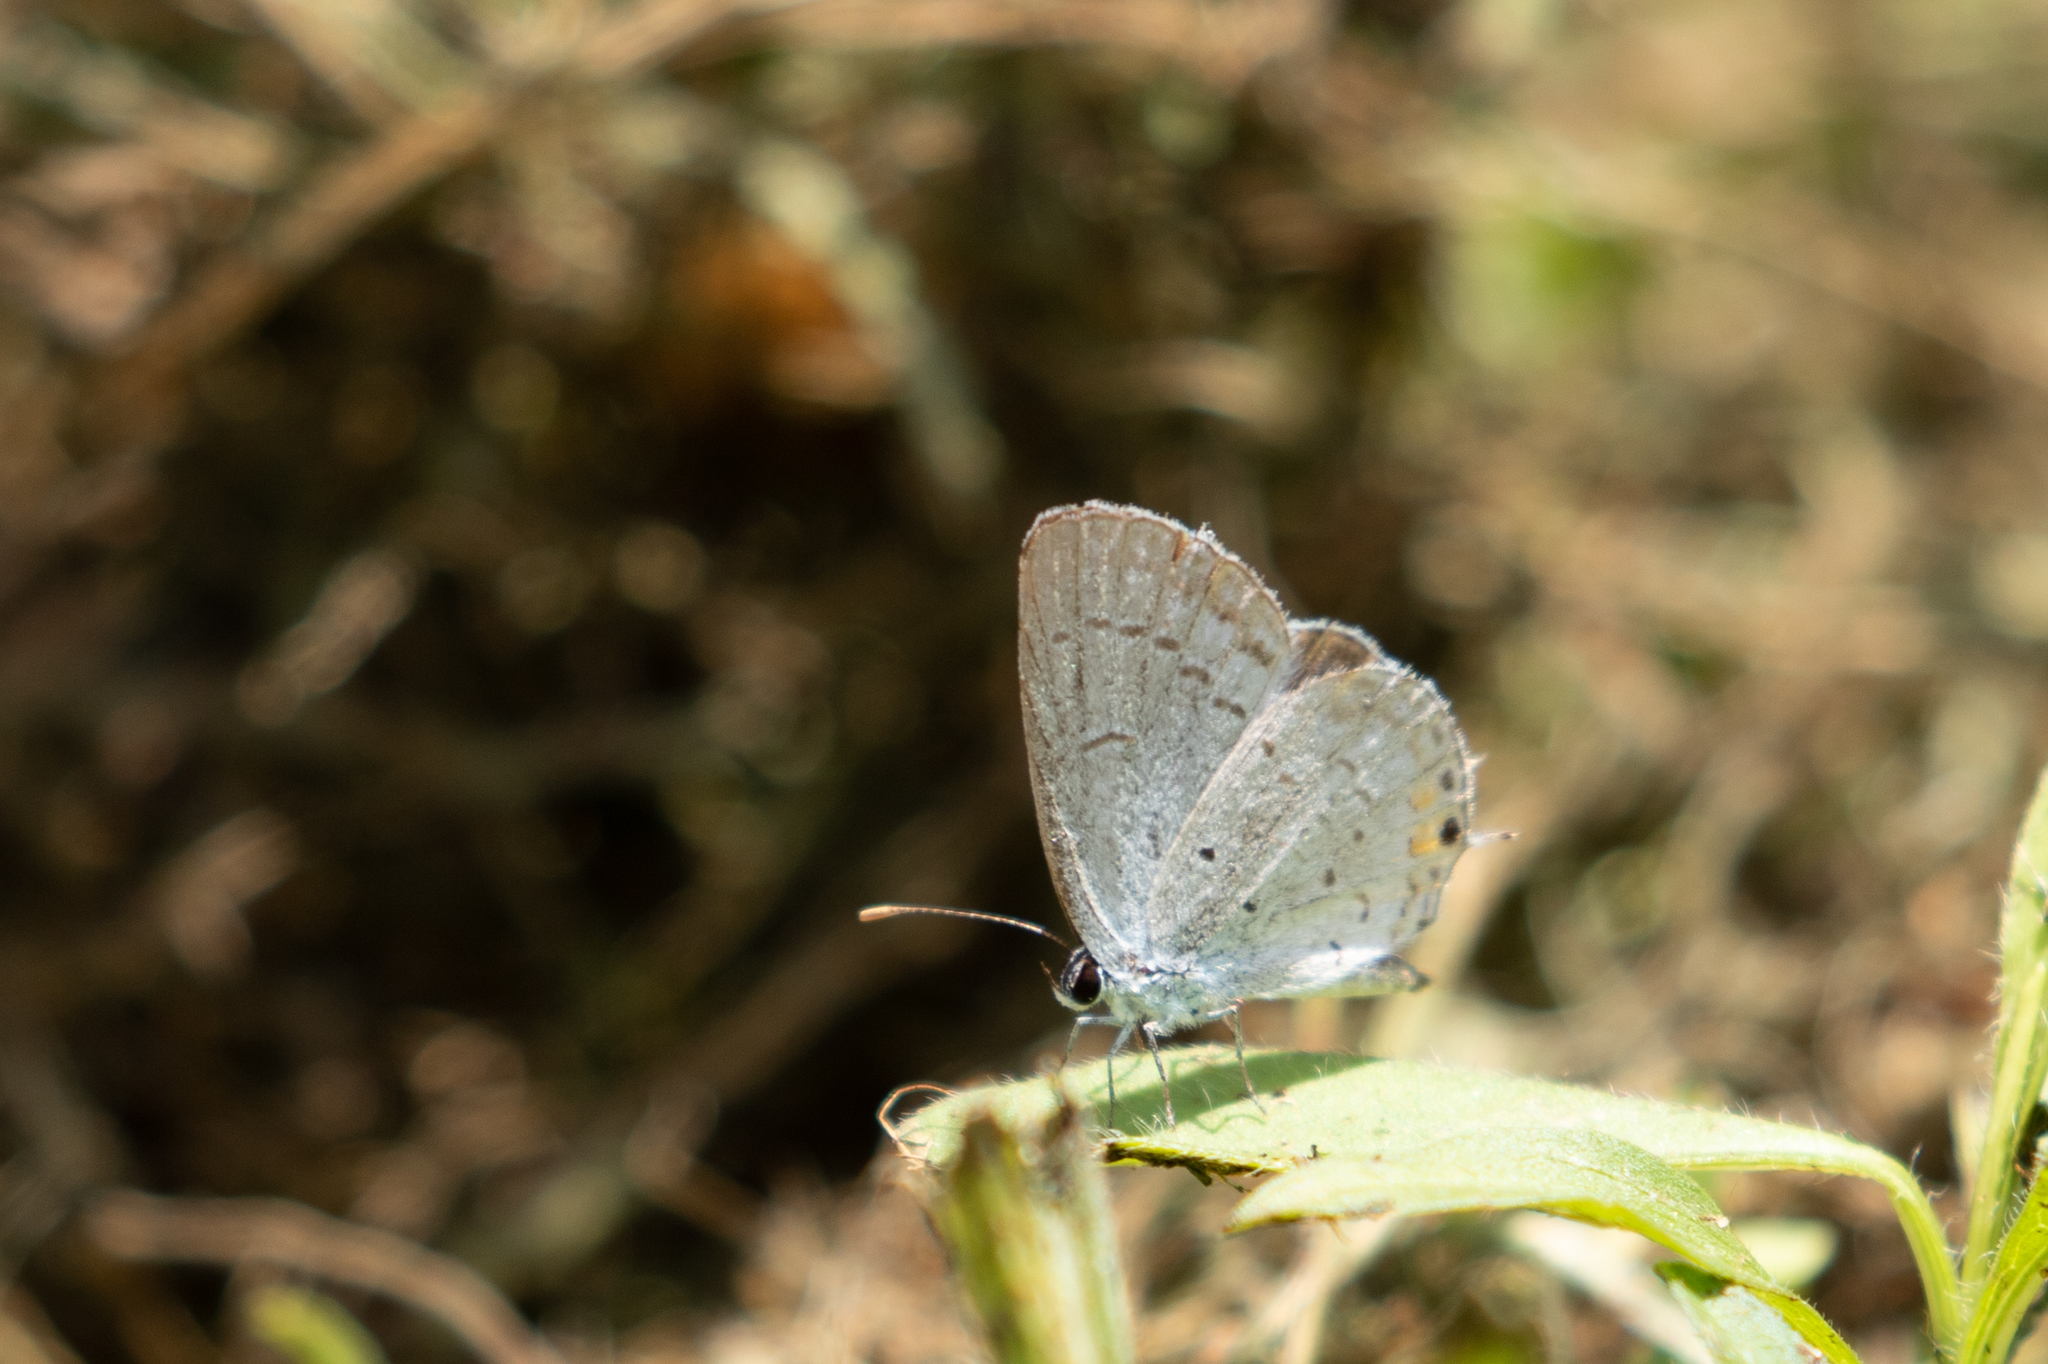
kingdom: Animalia
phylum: Arthropoda
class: Insecta
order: Lepidoptera
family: Lycaenidae
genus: Elkalyce
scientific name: Elkalyce comyntas
